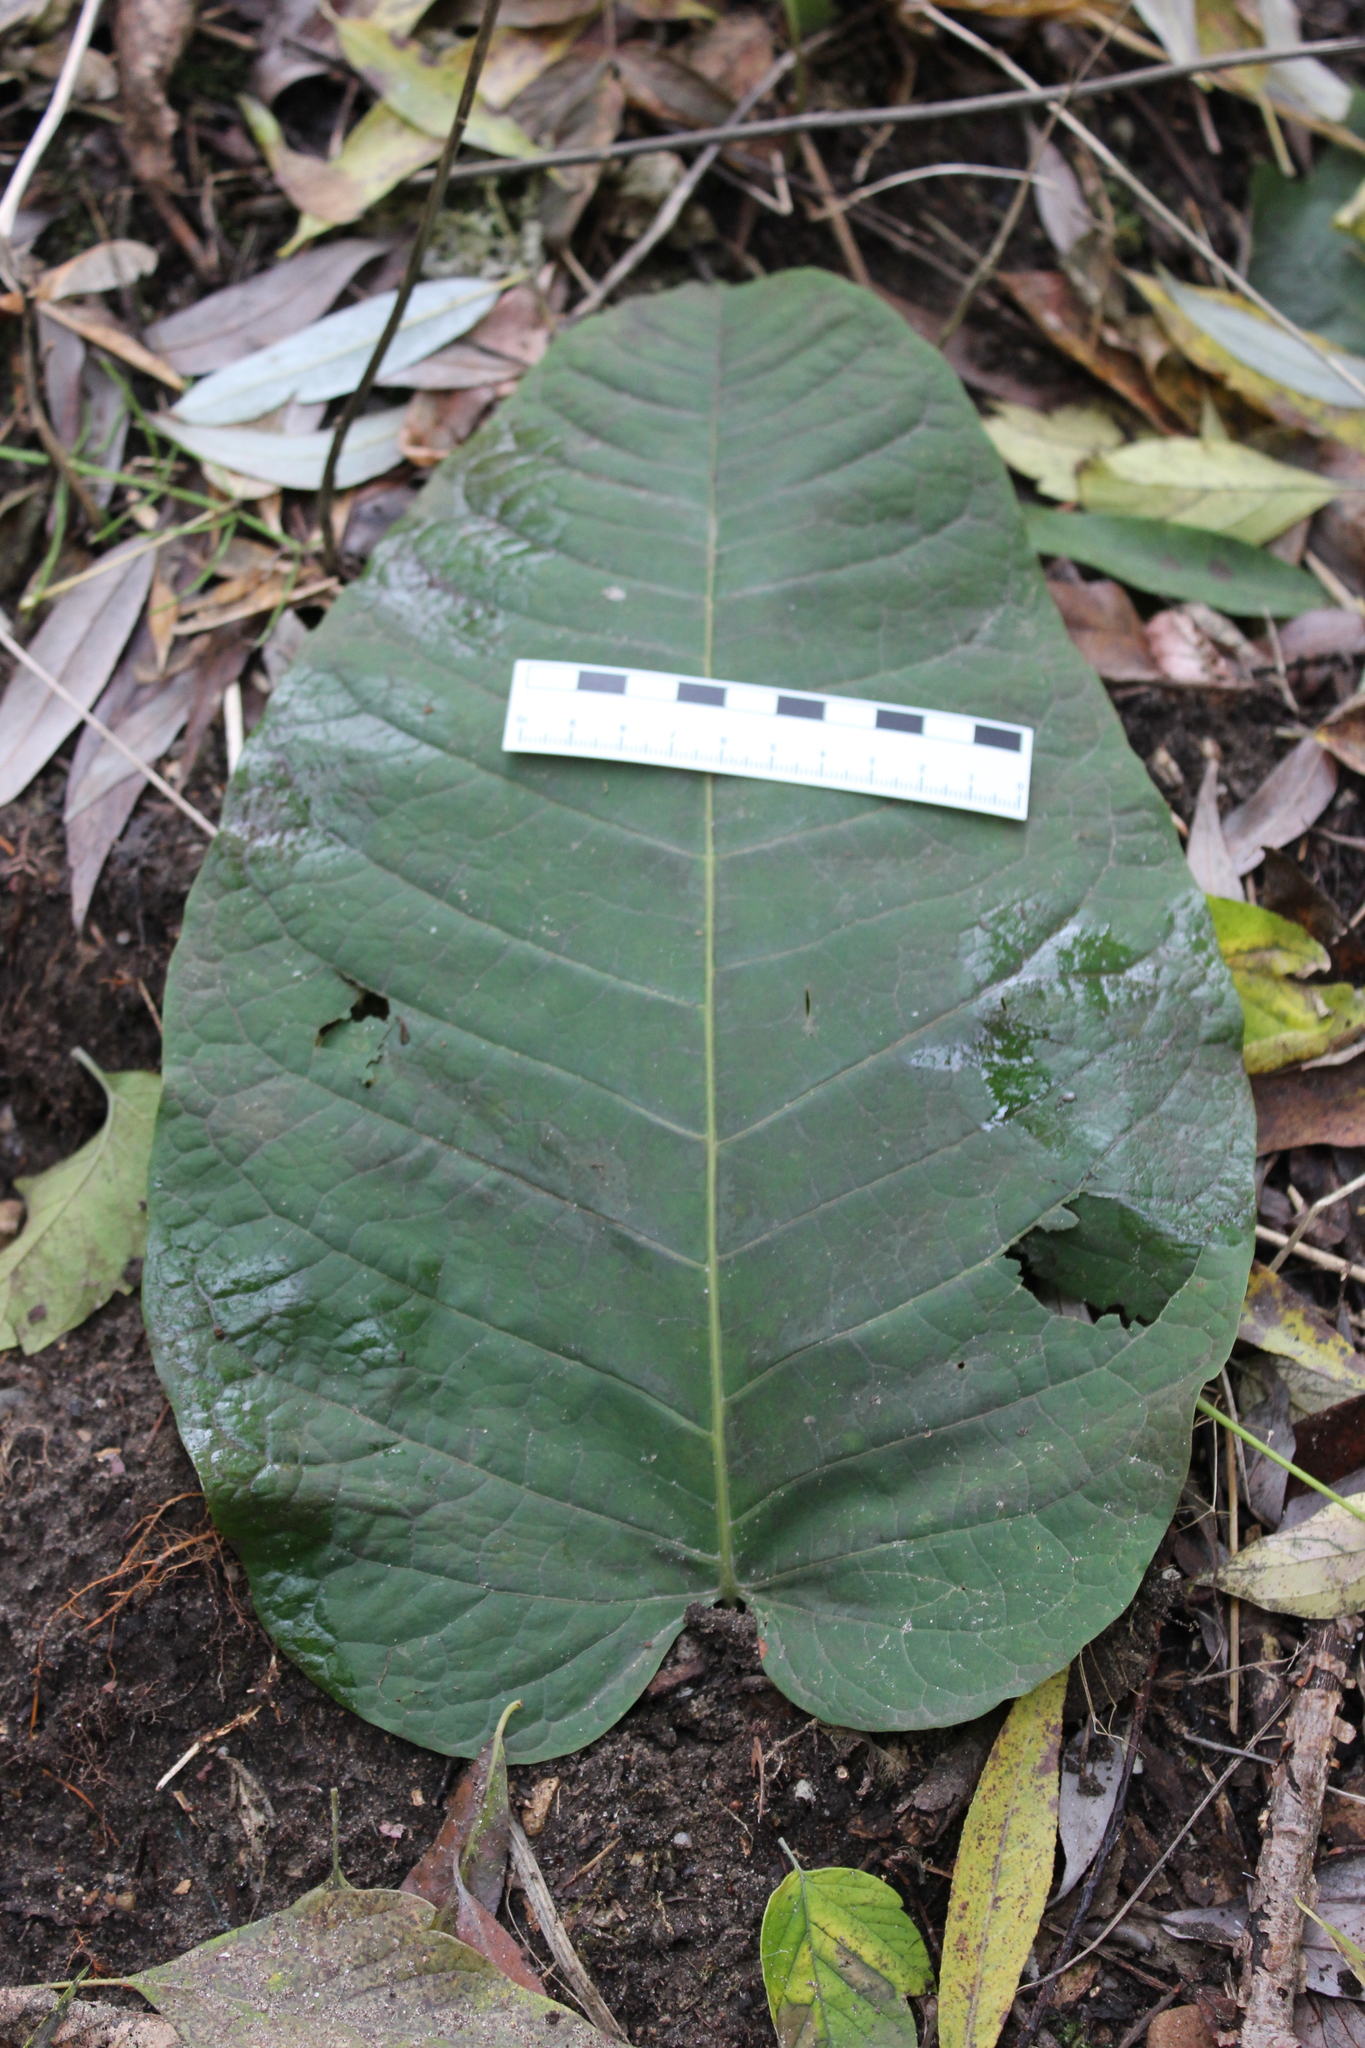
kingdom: Plantae
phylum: Tracheophyta
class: Magnoliopsida
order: Caryophyllales
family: Polygonaceae
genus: Reynoutria
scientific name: Reynoutria sachalinensis
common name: Giant knotweed
